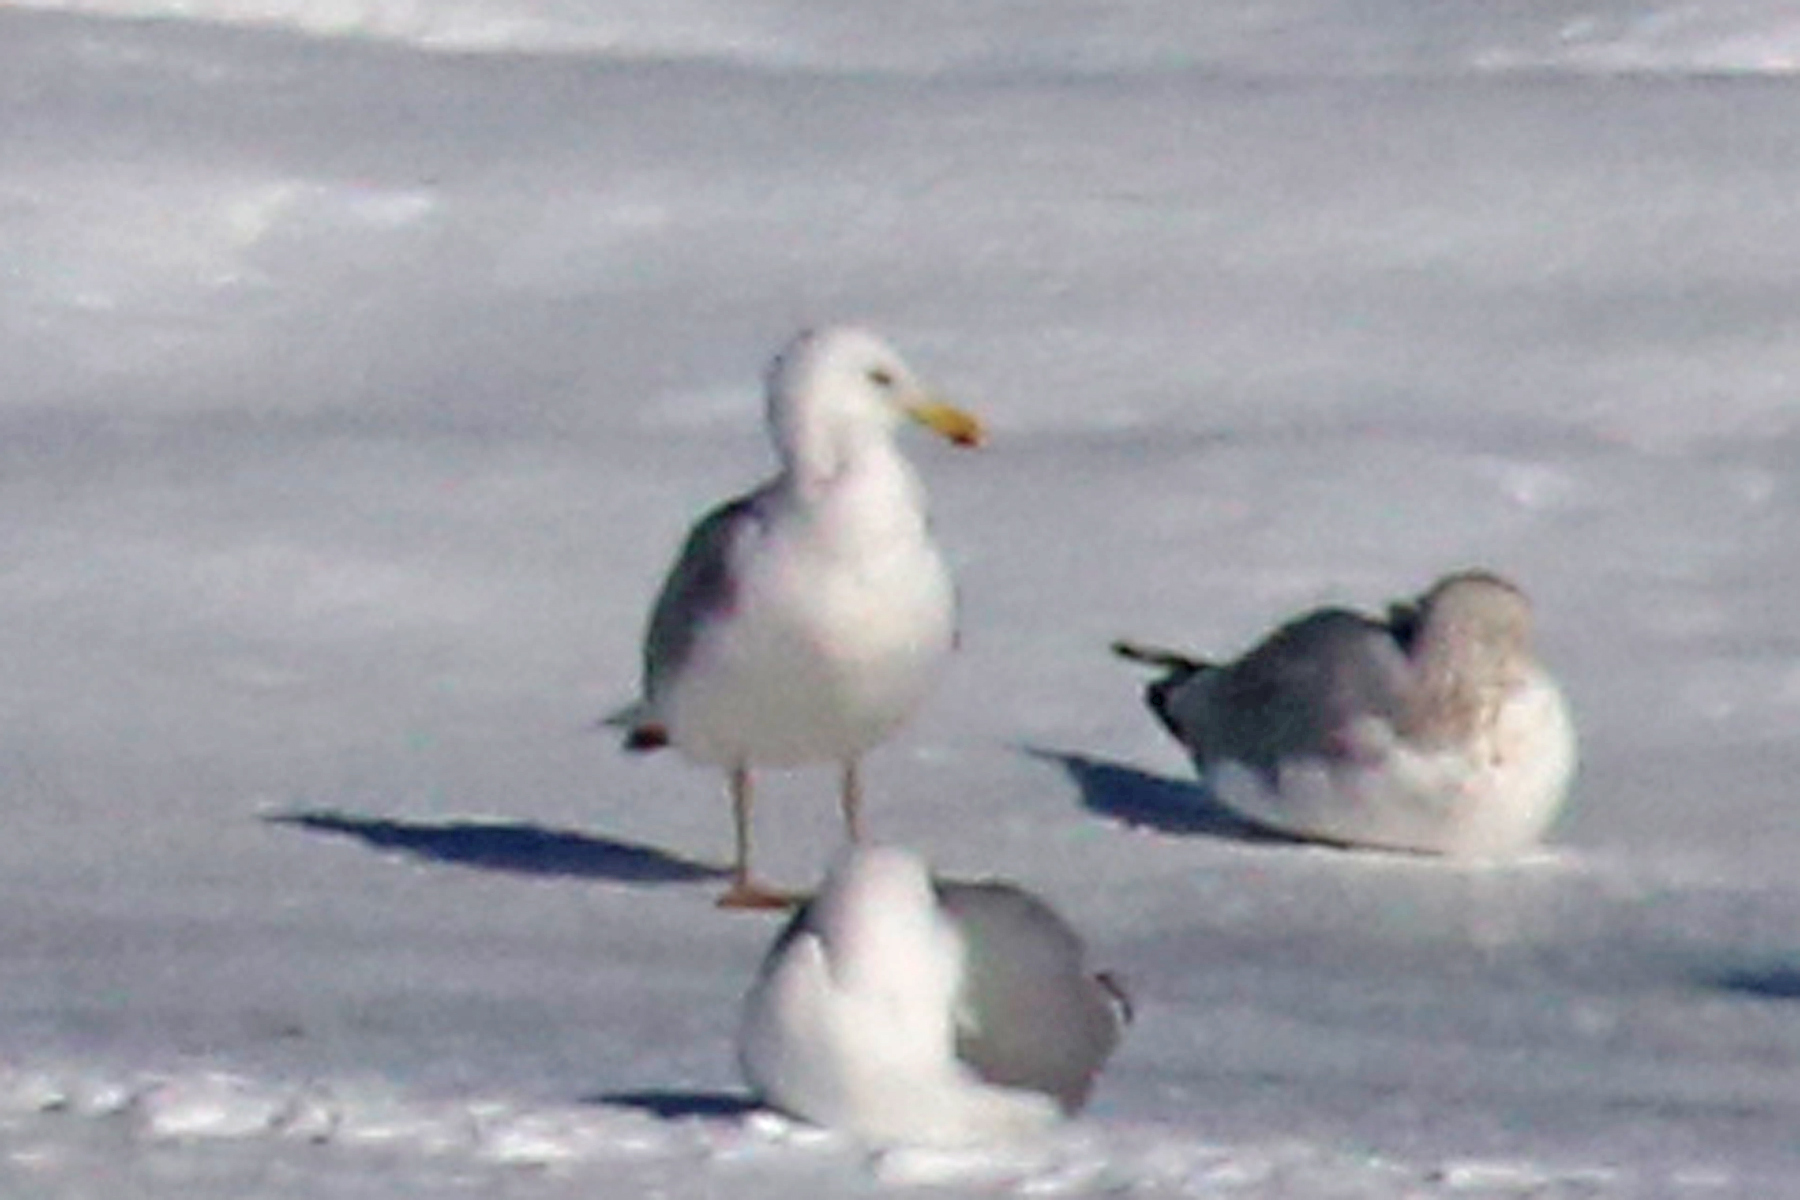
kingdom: Animalia
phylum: Chordata
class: Aves
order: Charadriiformes
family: Laridae
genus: Larus
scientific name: Larus argentatus
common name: Herring gull
